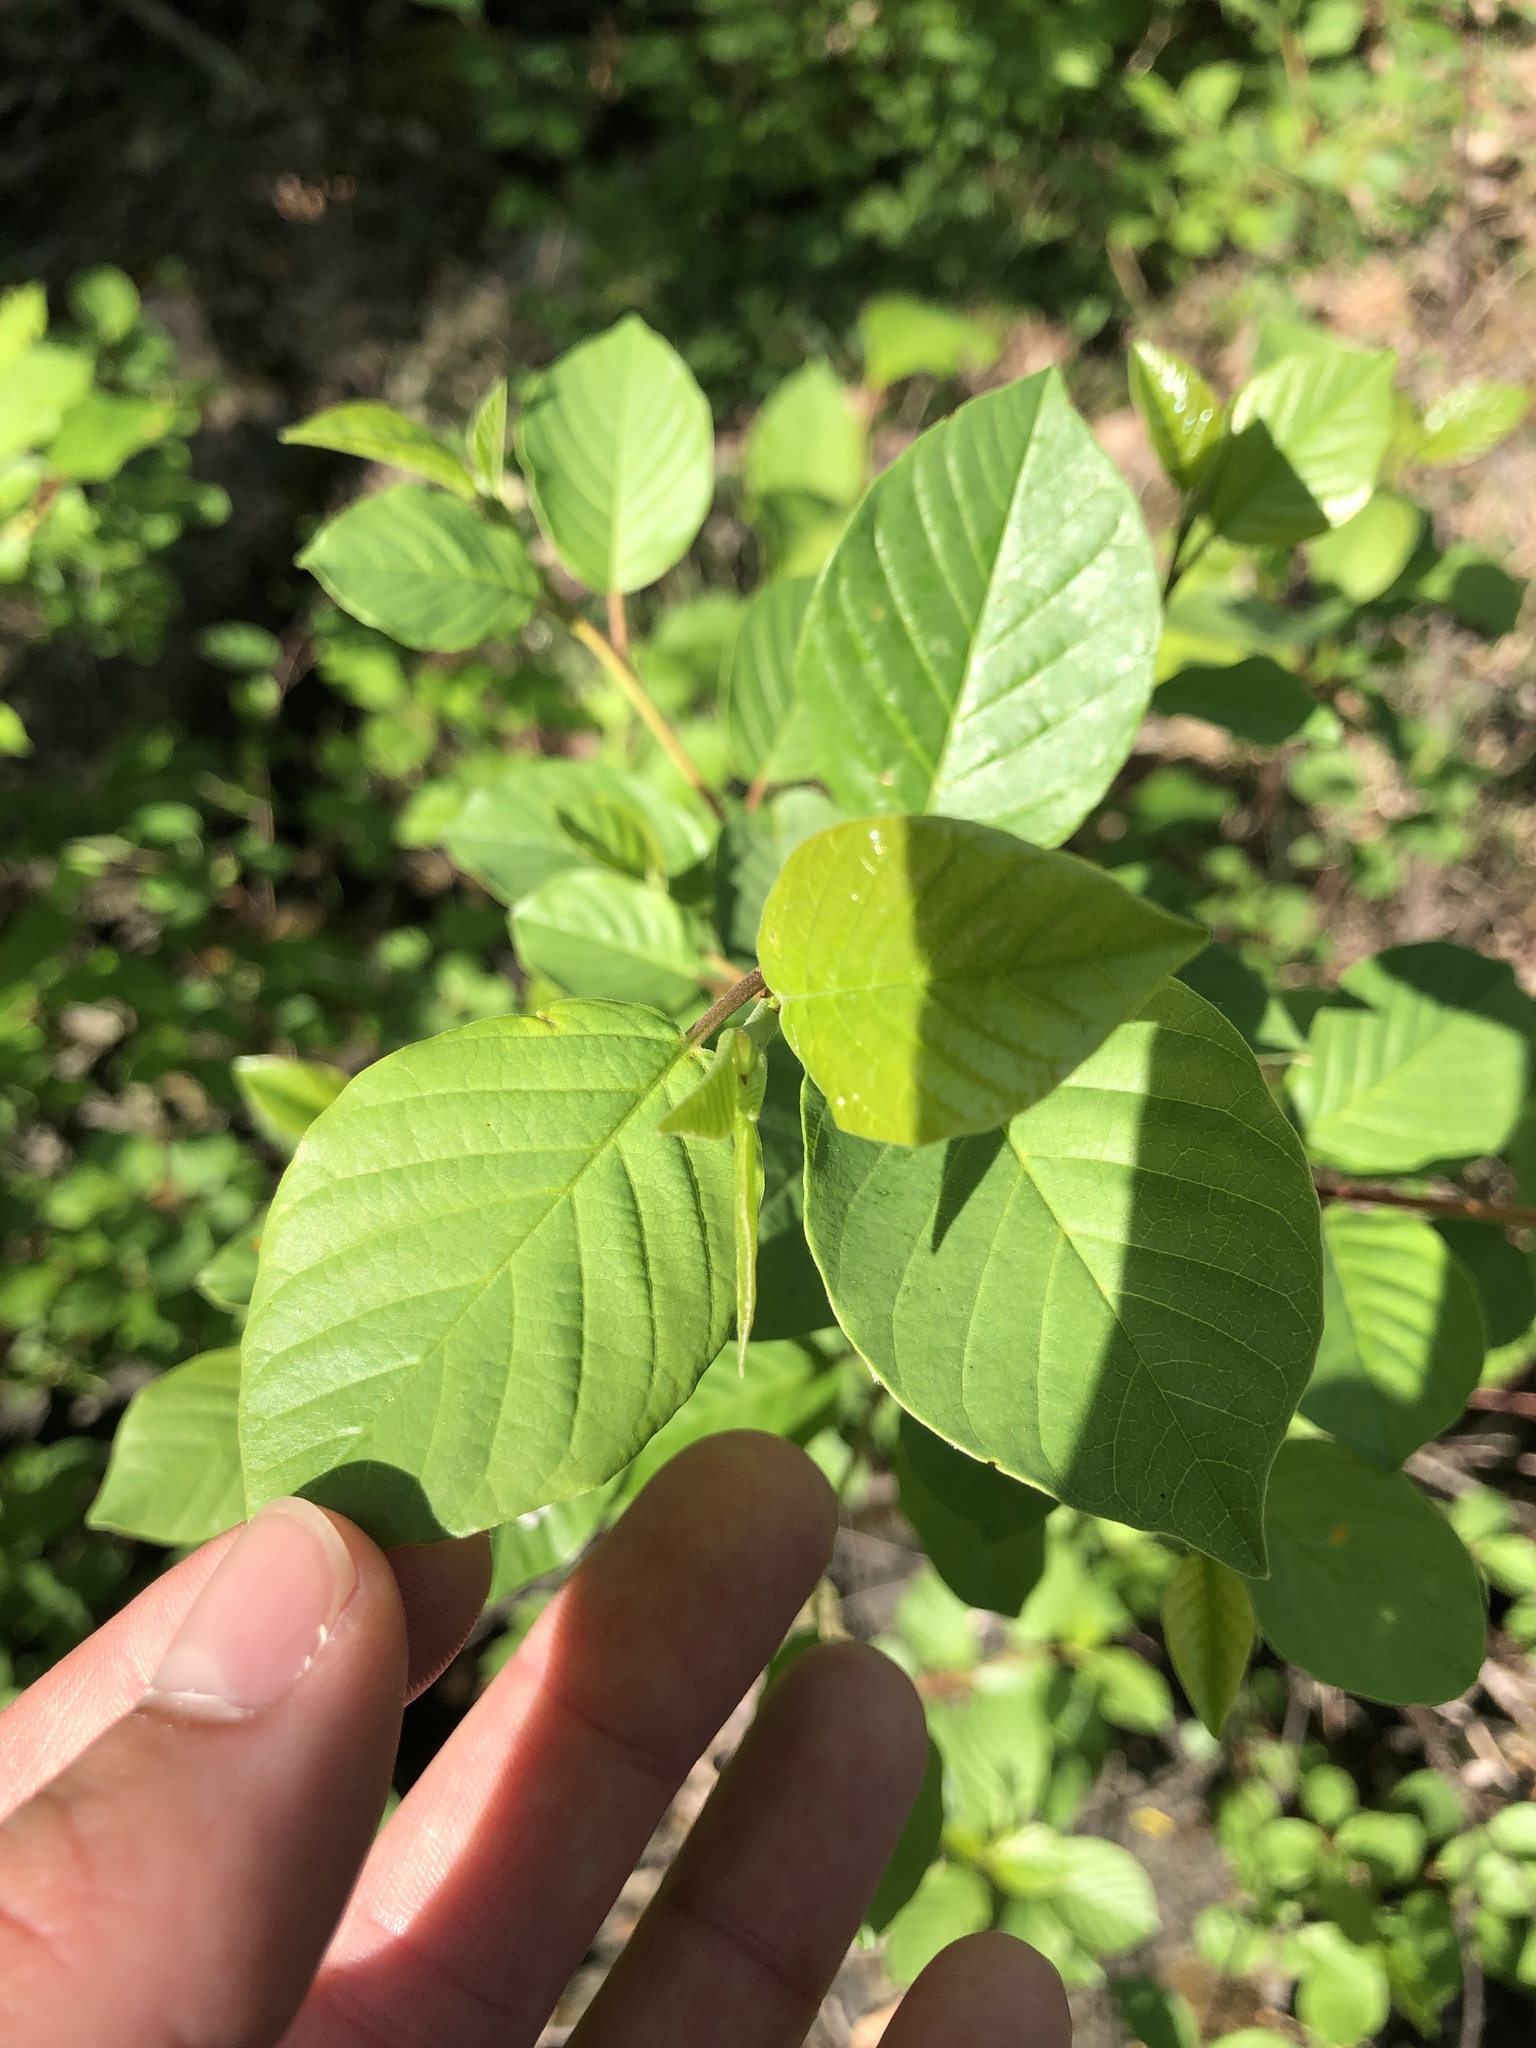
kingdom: Plantae
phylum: Tracheophyta
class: Magnoliopsida
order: Rosales
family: Rhamnaceae
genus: Frangula
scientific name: Frangula alnus
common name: Alder buckthorn
